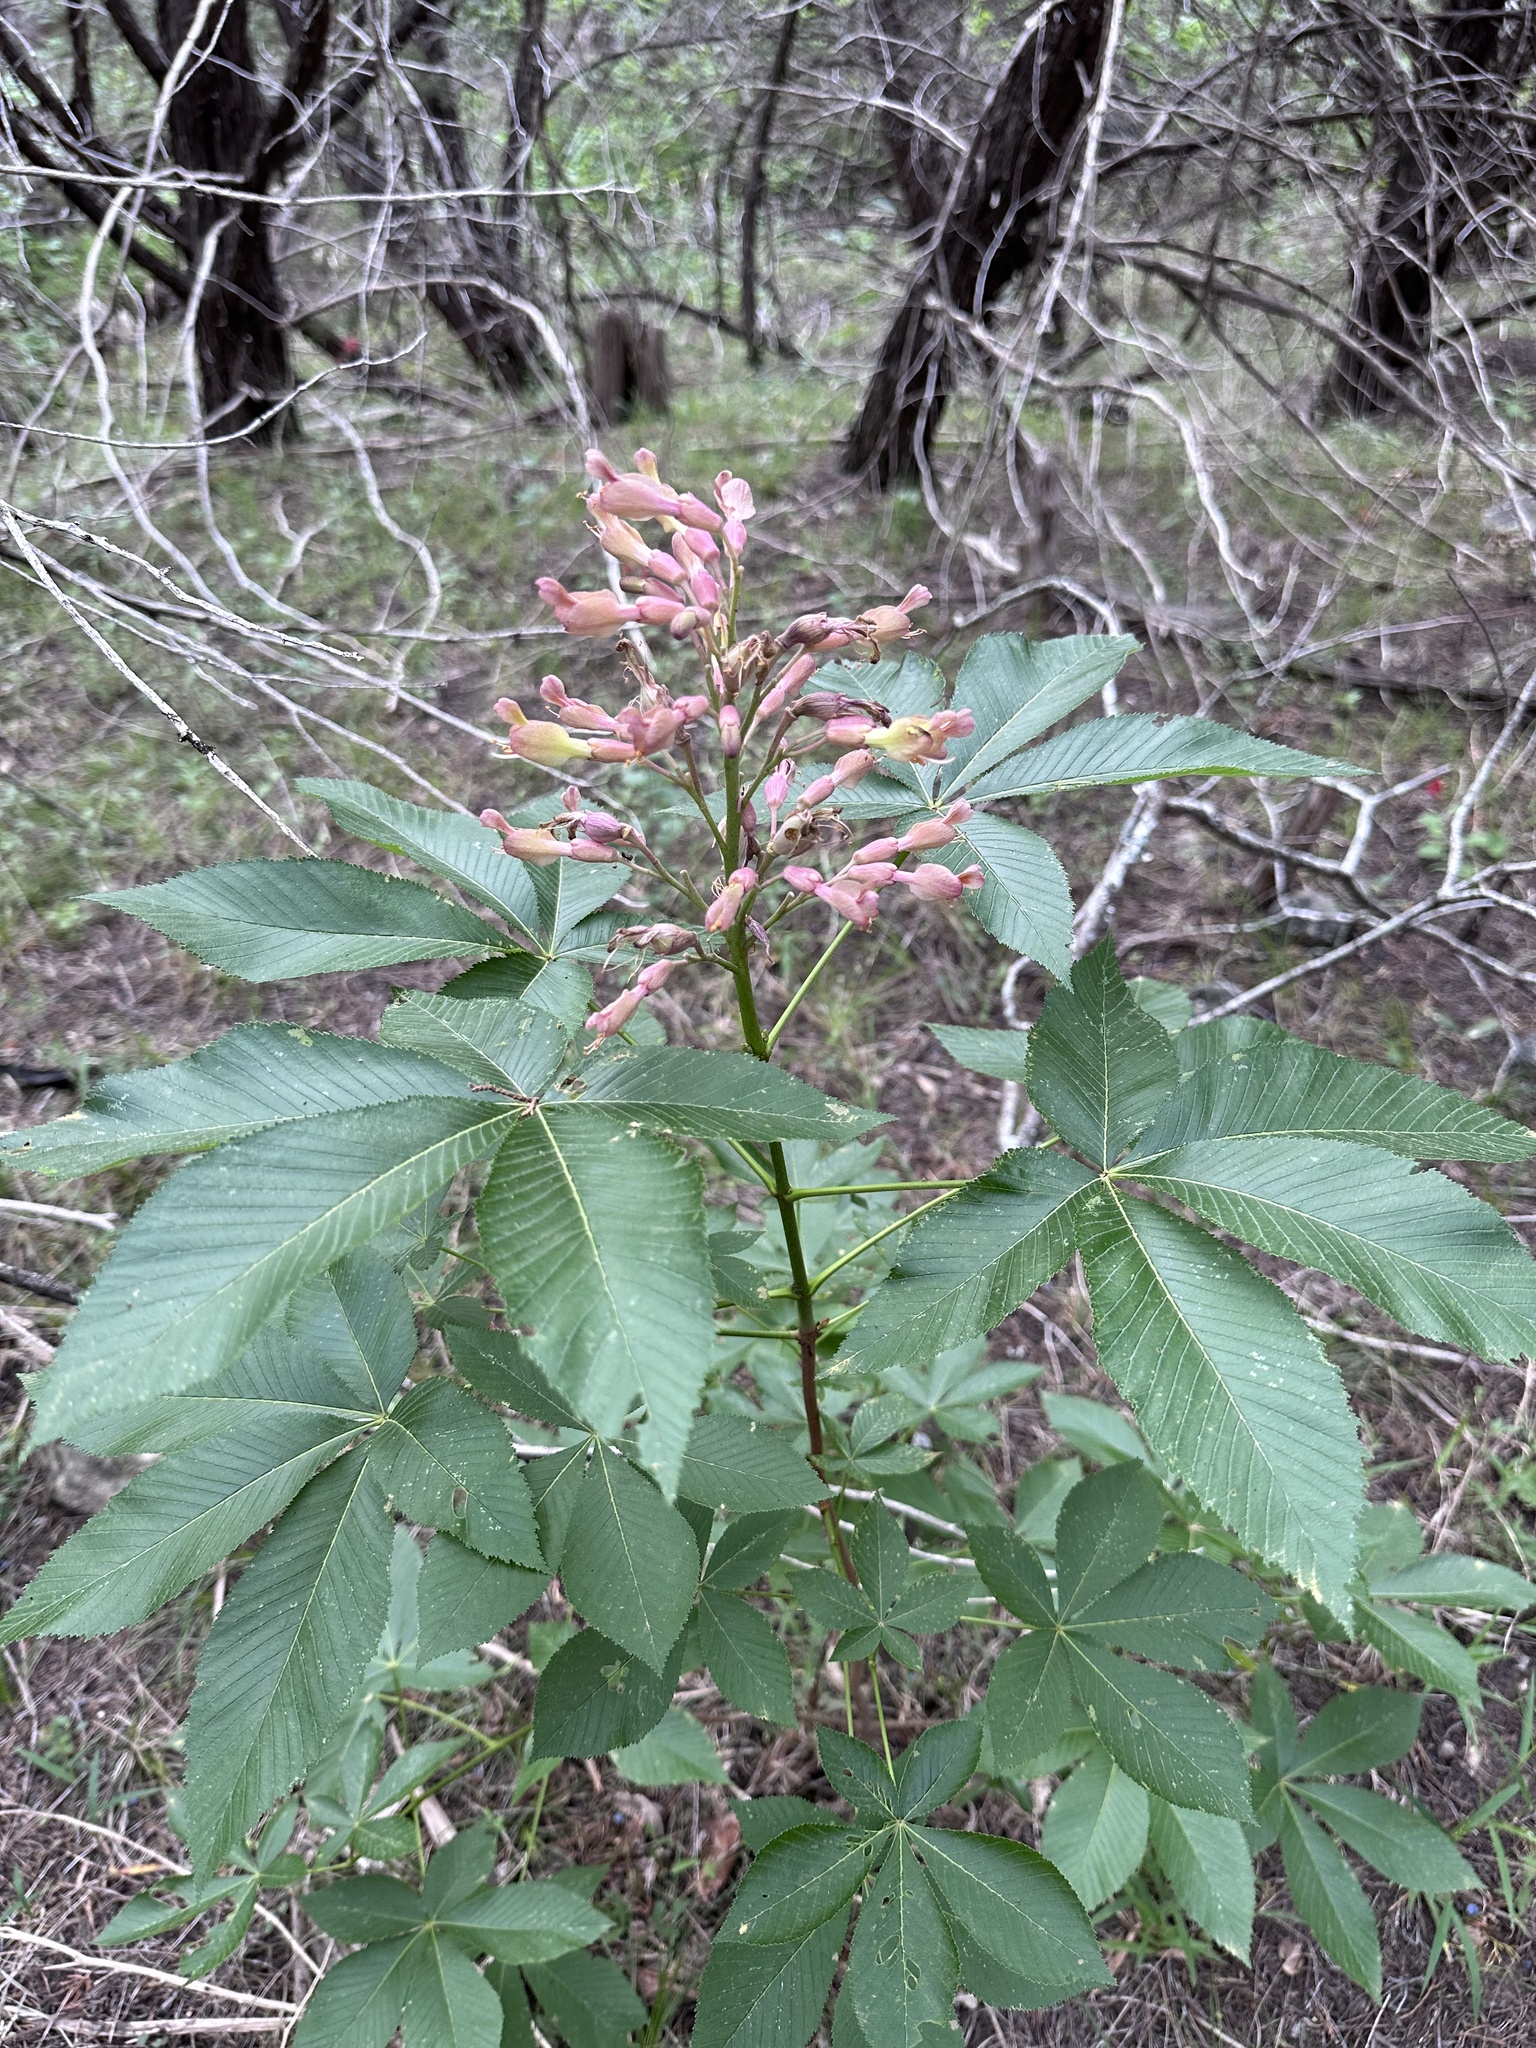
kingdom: Plantae
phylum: Tracheophyta
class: Magnoliopsida
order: Sapindales
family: Sapindaceae
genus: Aesculus
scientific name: Aesculus pavia
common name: Red buckeye
